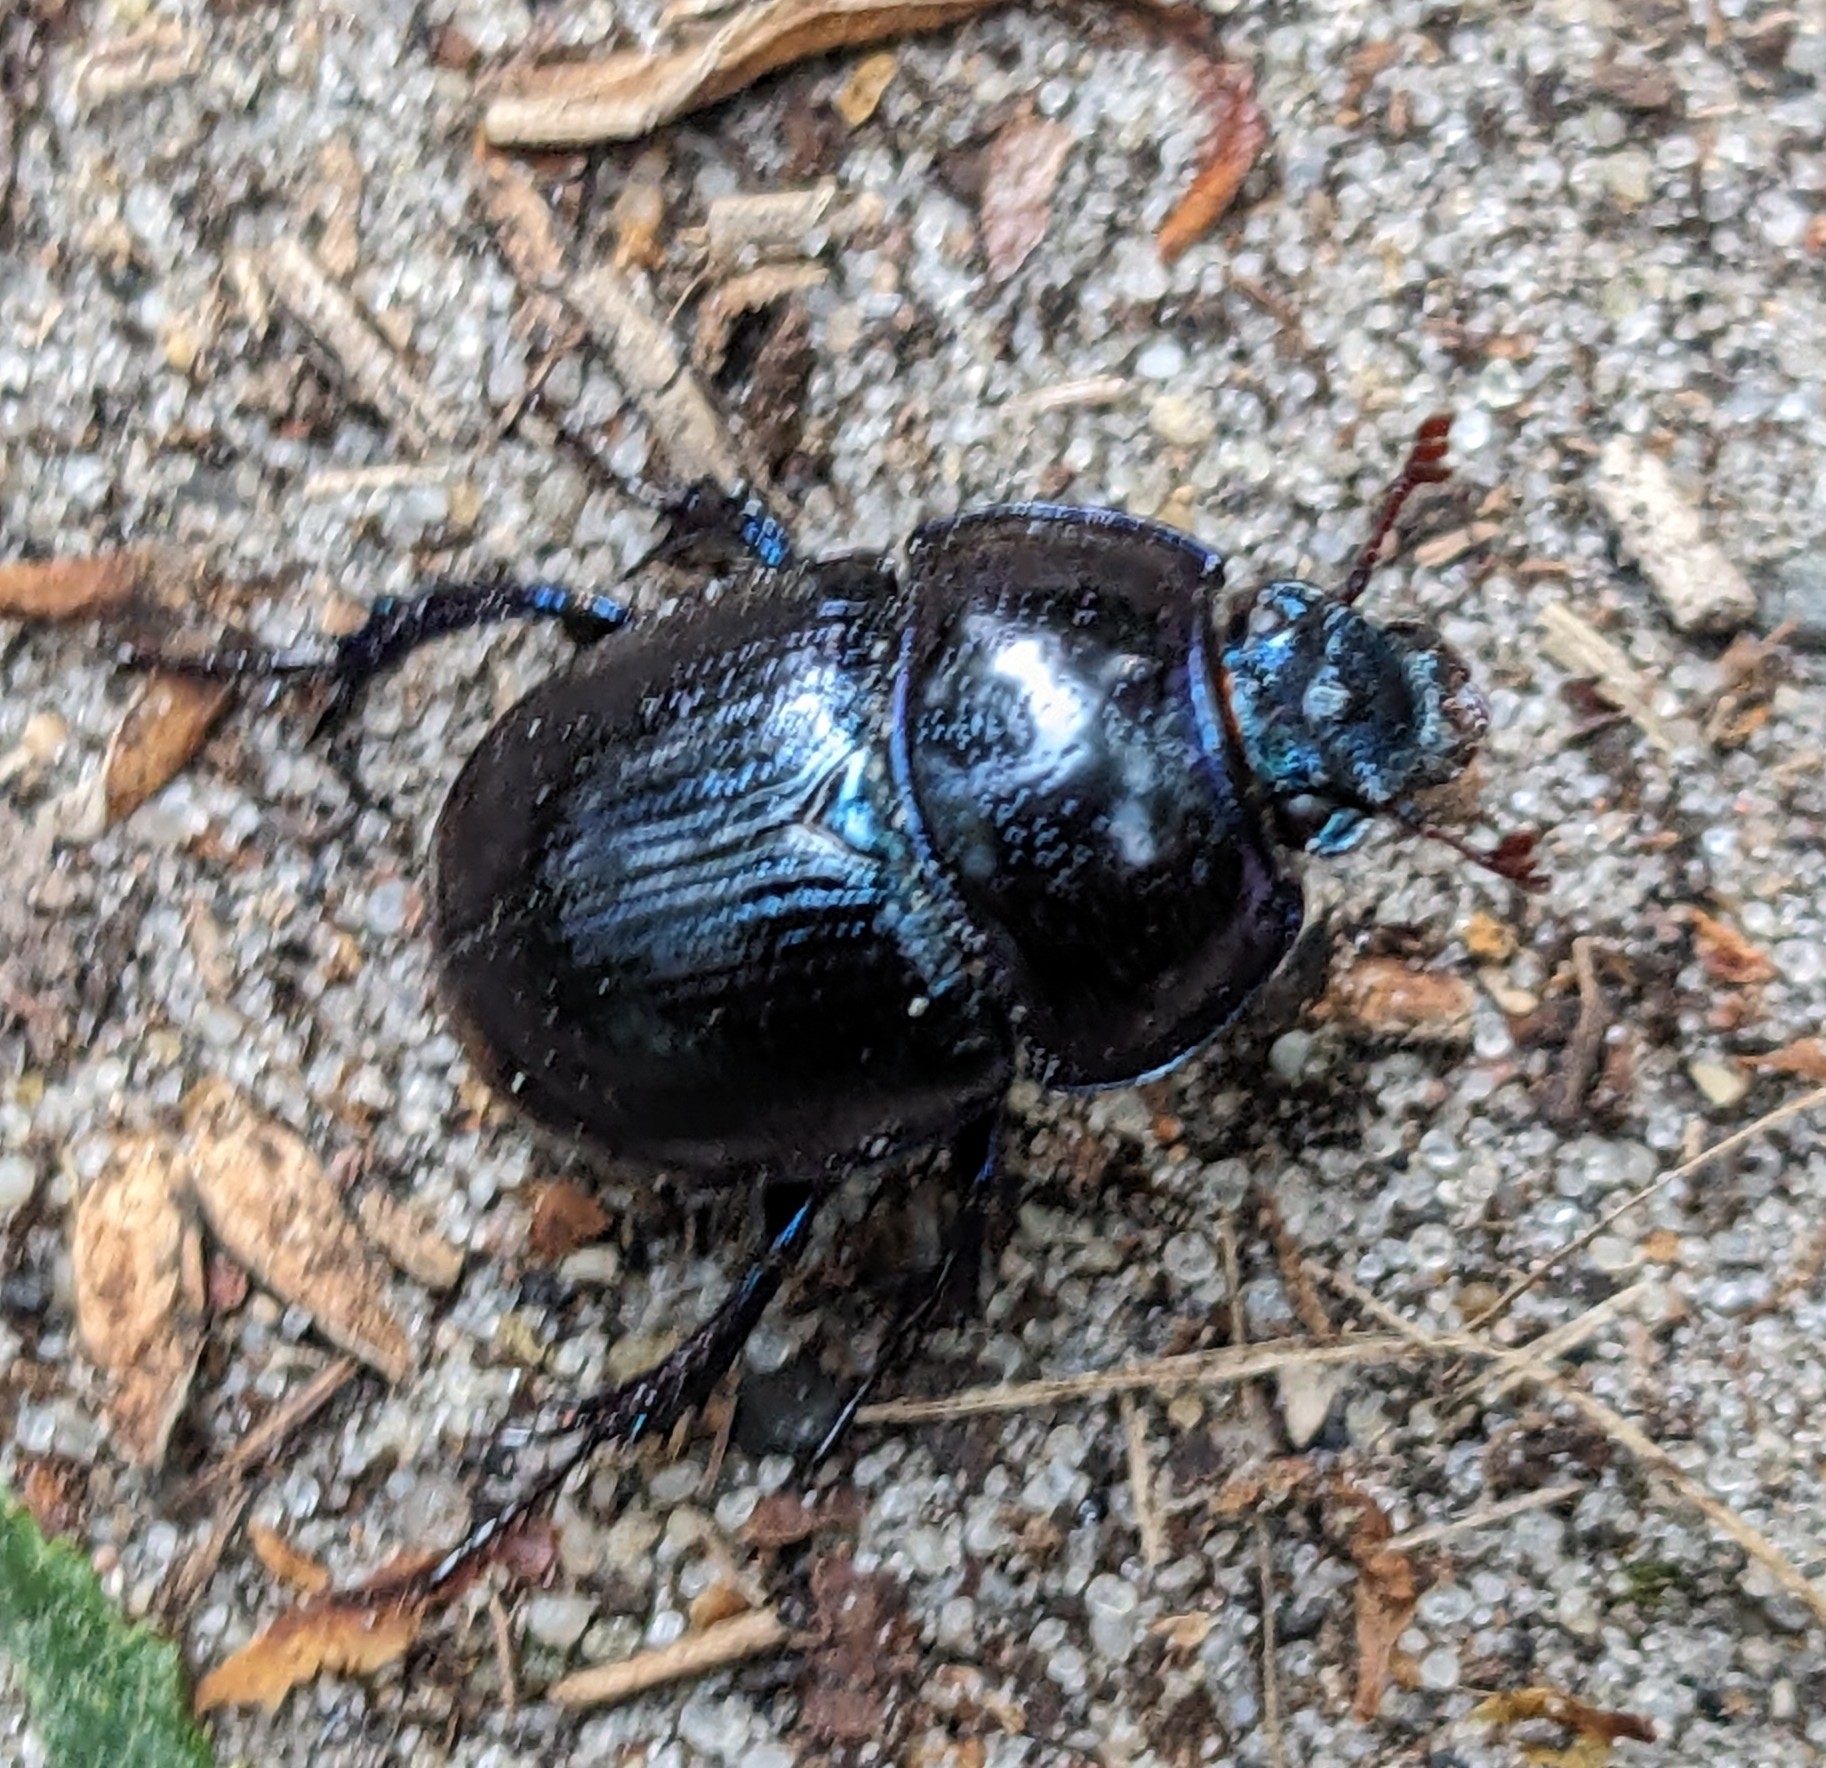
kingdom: Animalia
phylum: Arthropoda
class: Insecta
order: Coleoptera
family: Geotrupidae
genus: Anoplotrupes
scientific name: Anoplotrupes stercorosus
